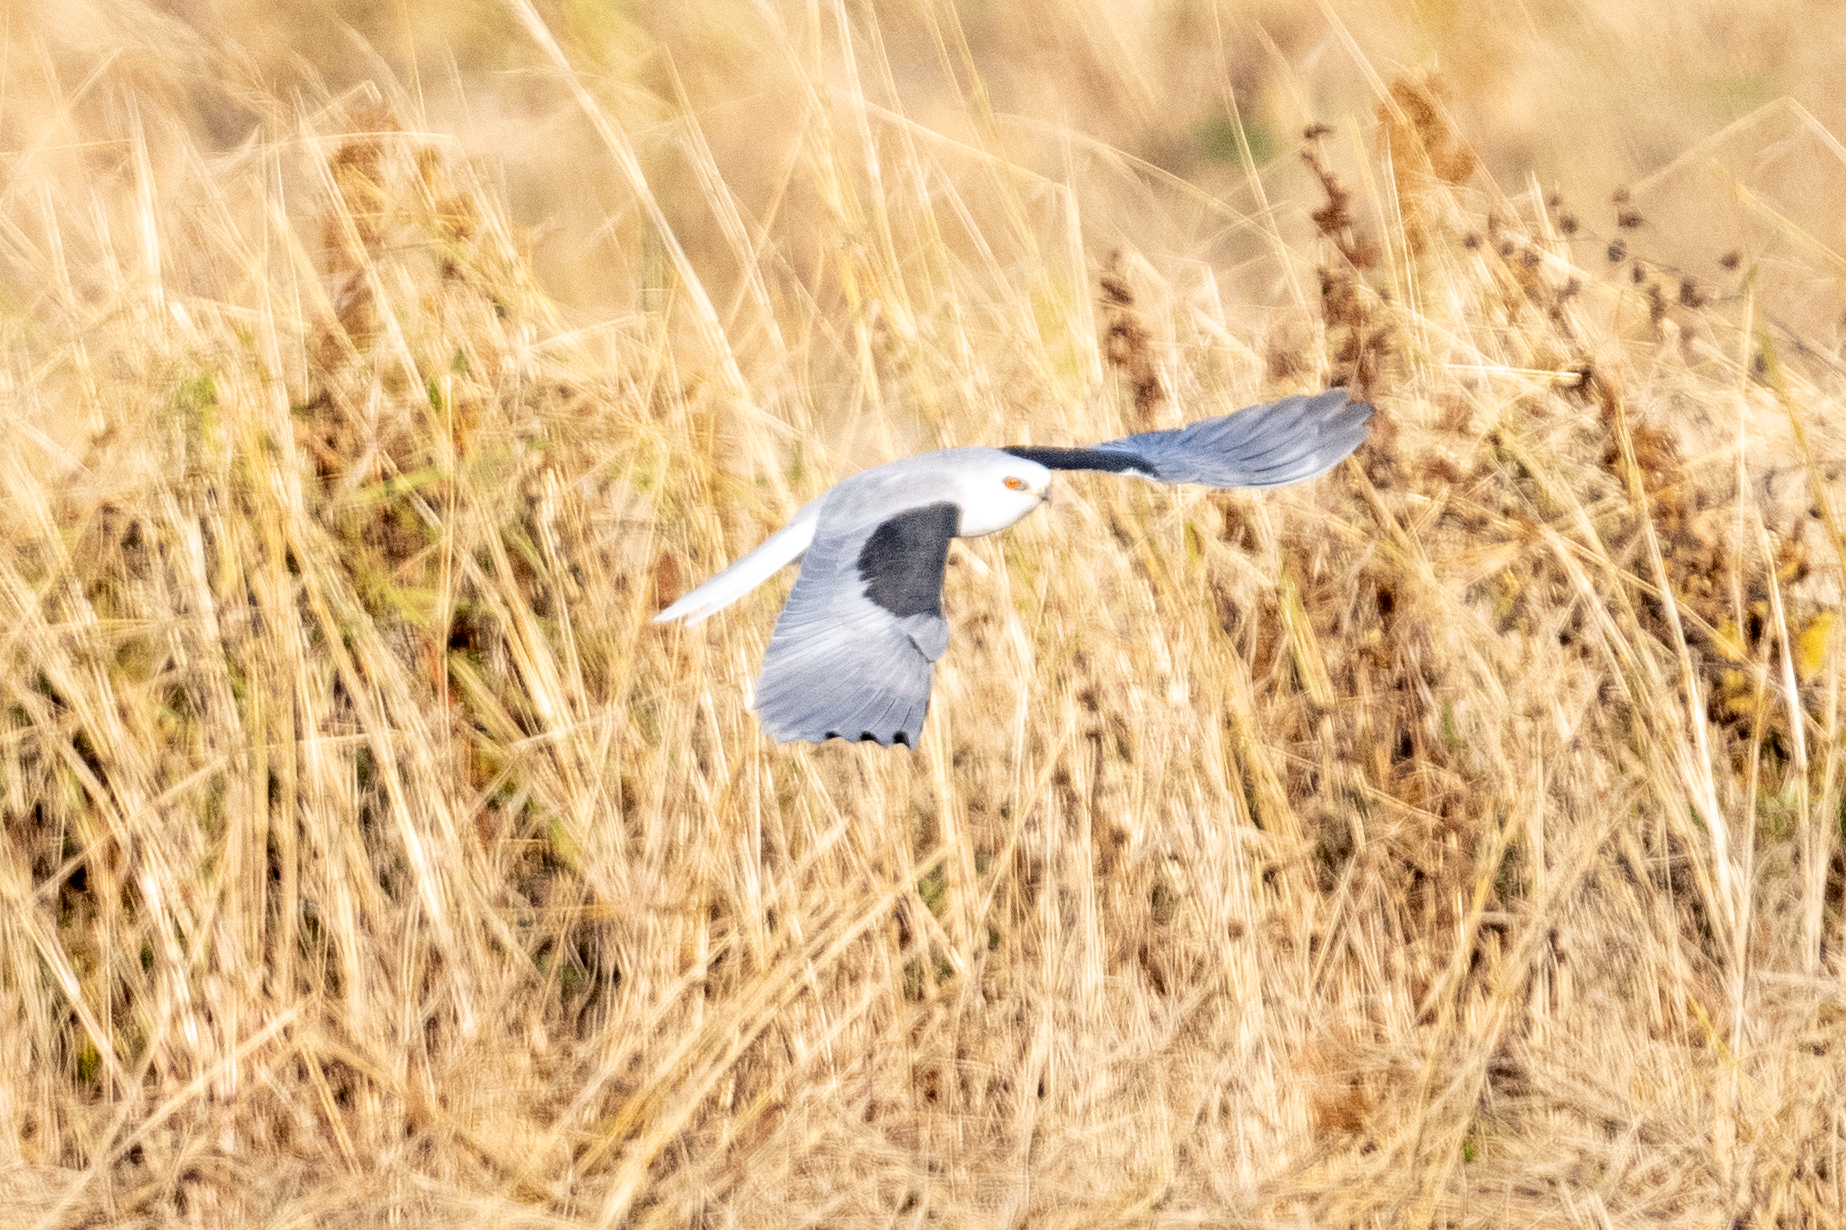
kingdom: Animalia
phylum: Chordata
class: Aves
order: Accipitriformes
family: Accipitridae
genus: Elanus
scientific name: Elanus leucurus
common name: White-tailed kite
